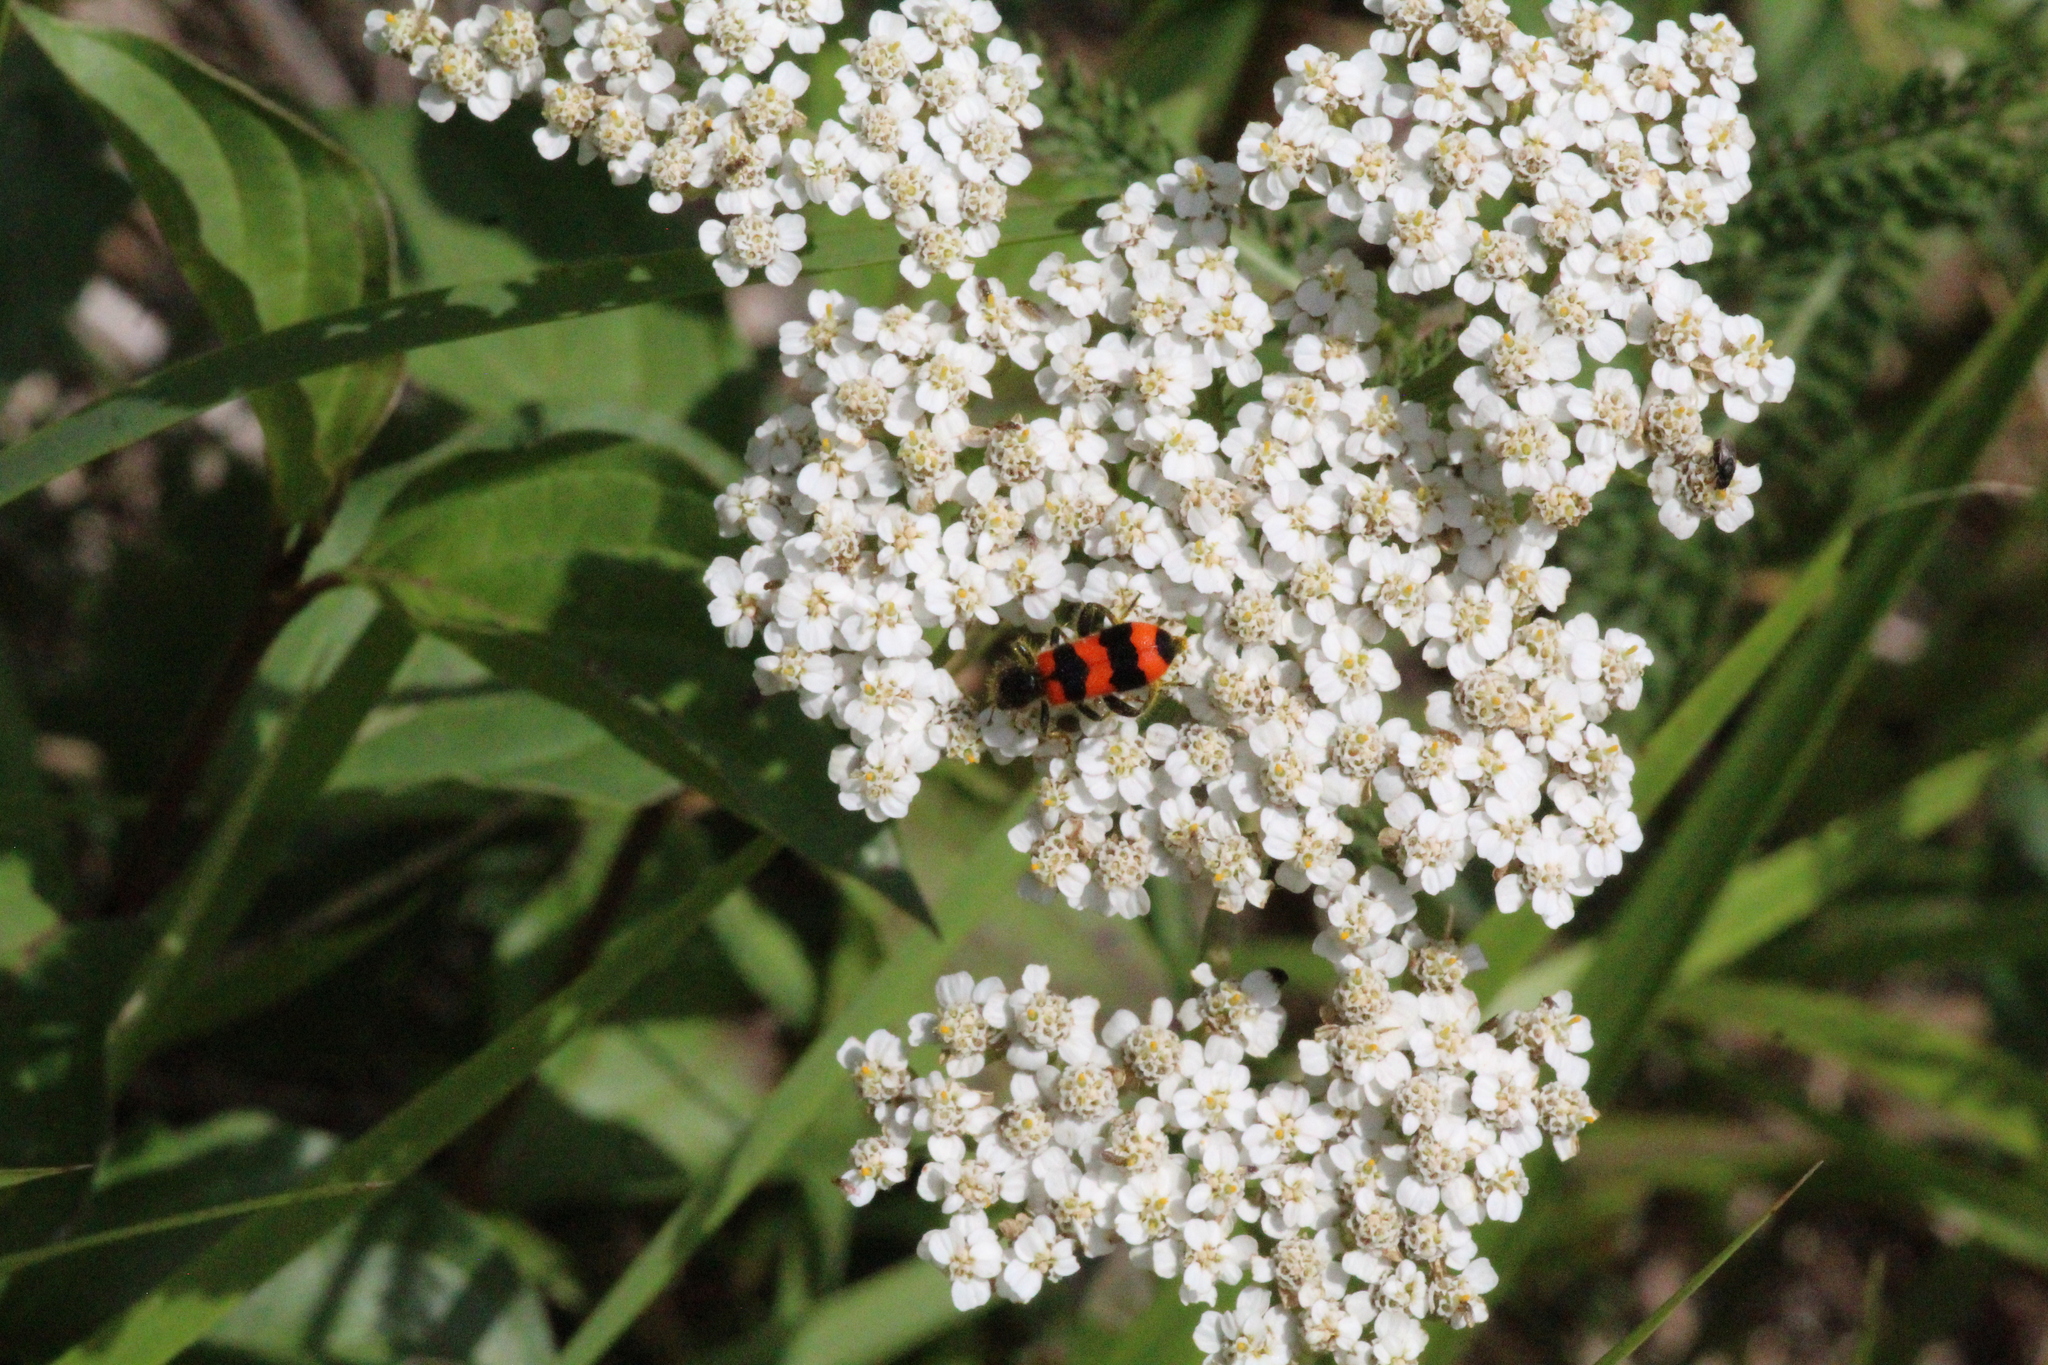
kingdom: Animalia
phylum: Arthropoda
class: Insecta
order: Coleoptera
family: Cleridae
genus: Trichodes
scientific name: Trichodes apiarius
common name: Bee-eating beetle
